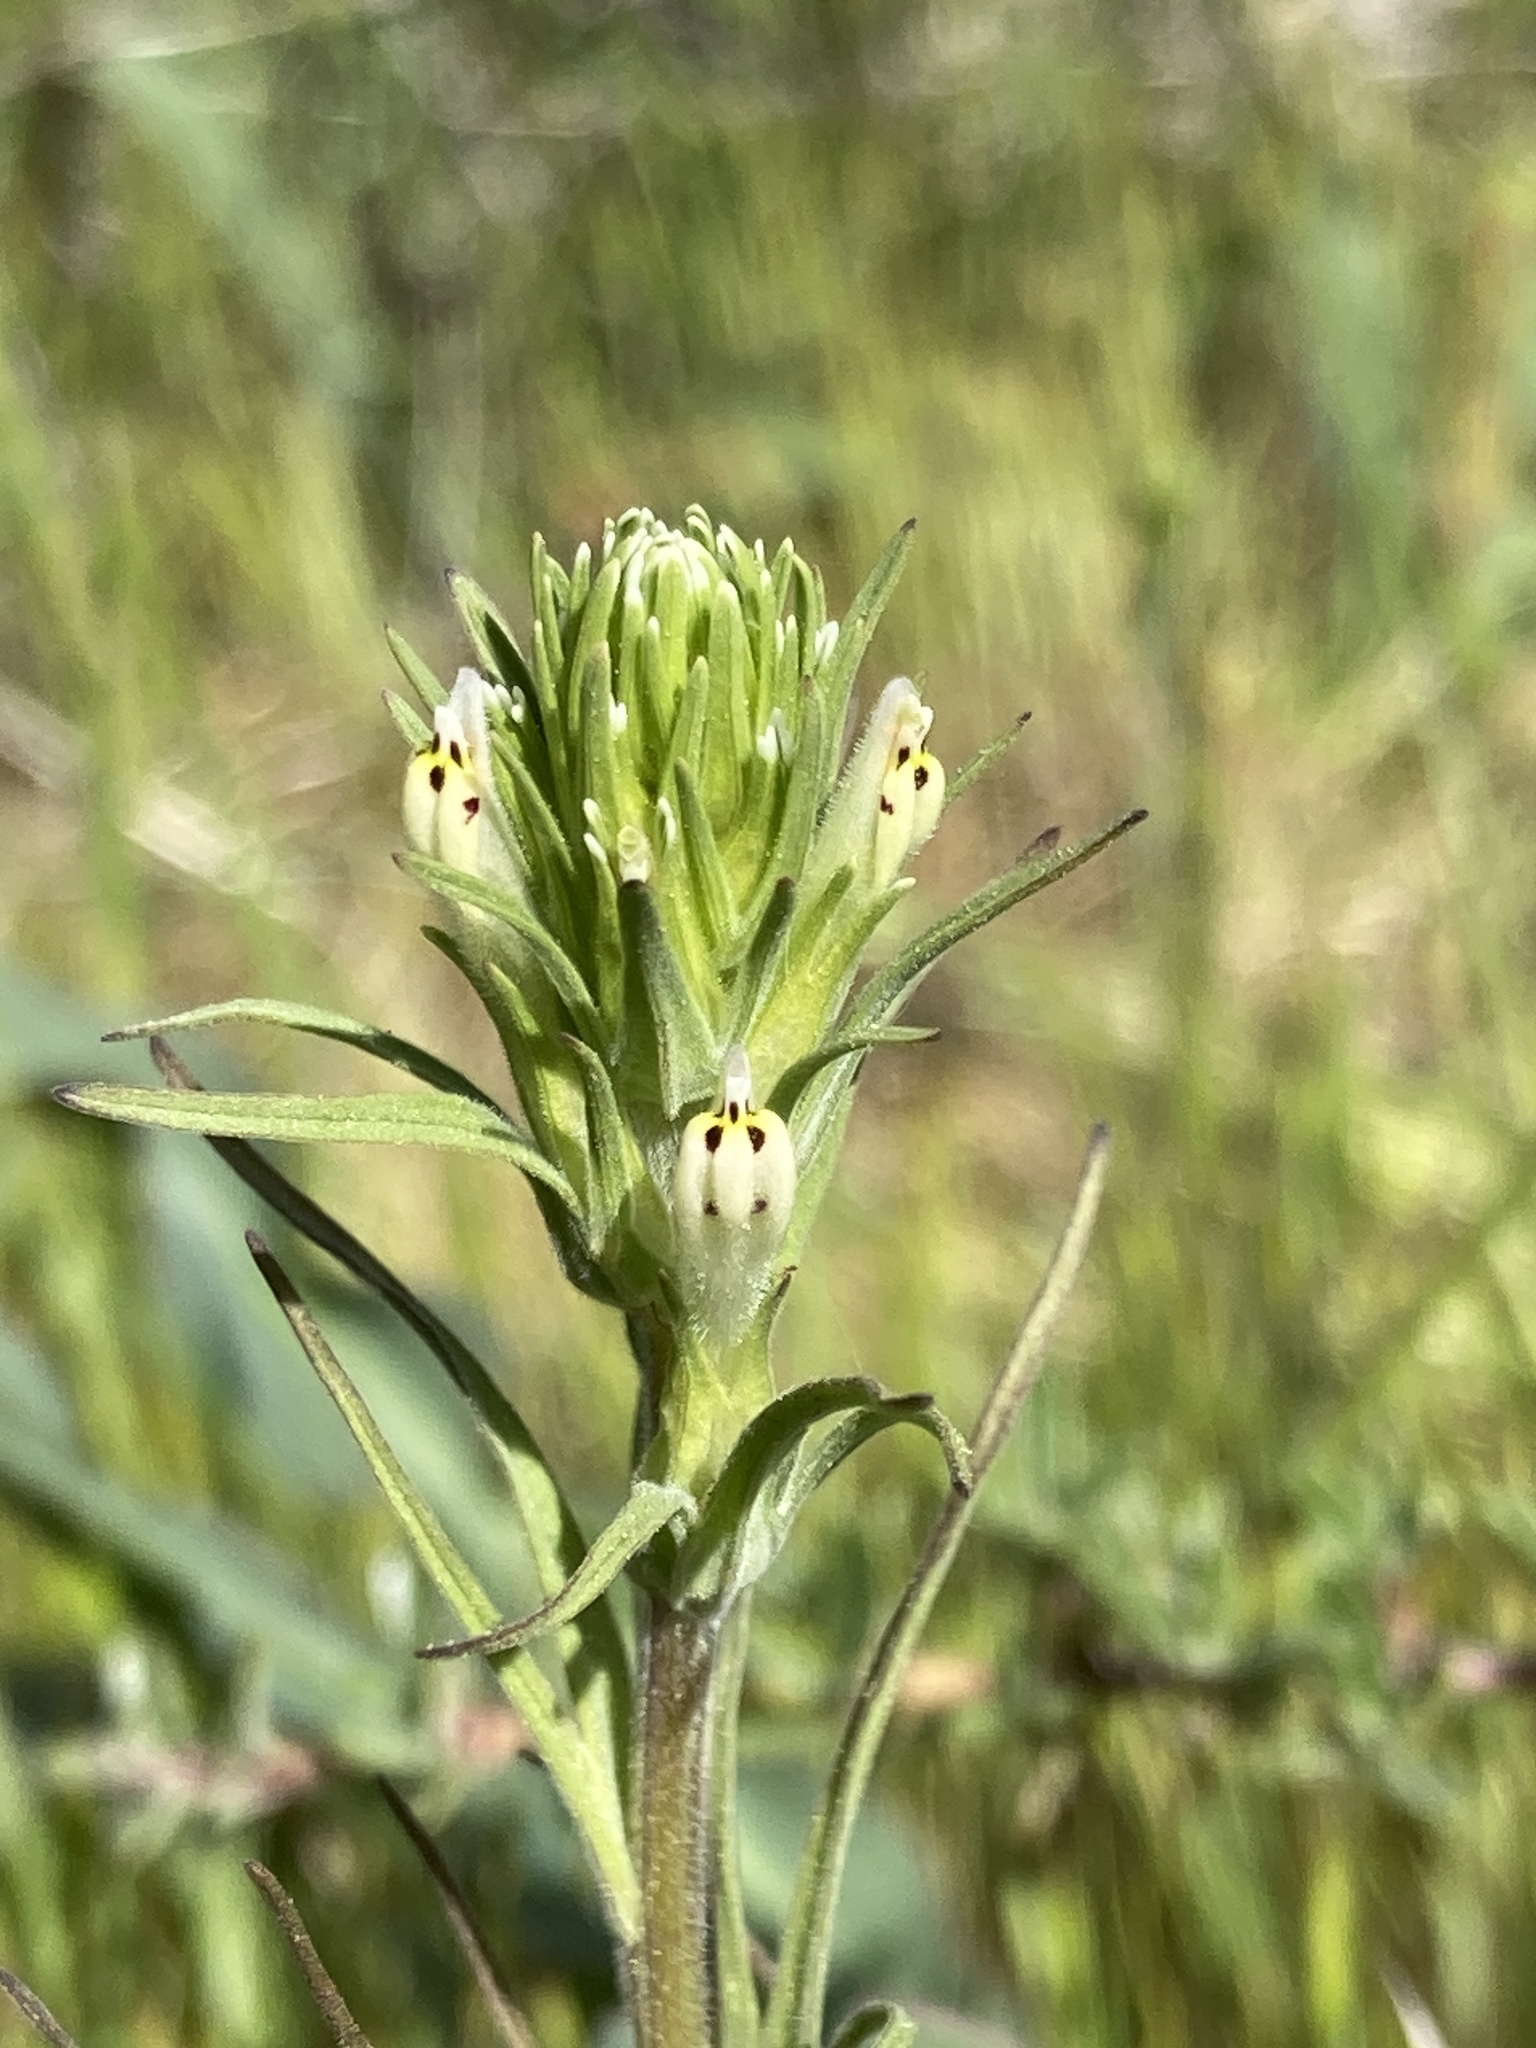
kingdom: Plantae
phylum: Tracheophyta
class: Magnoliopsida
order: Lamiales
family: Orobanchaceae
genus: Castilleja
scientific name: Castilleja attenuata
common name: Valley tassels
